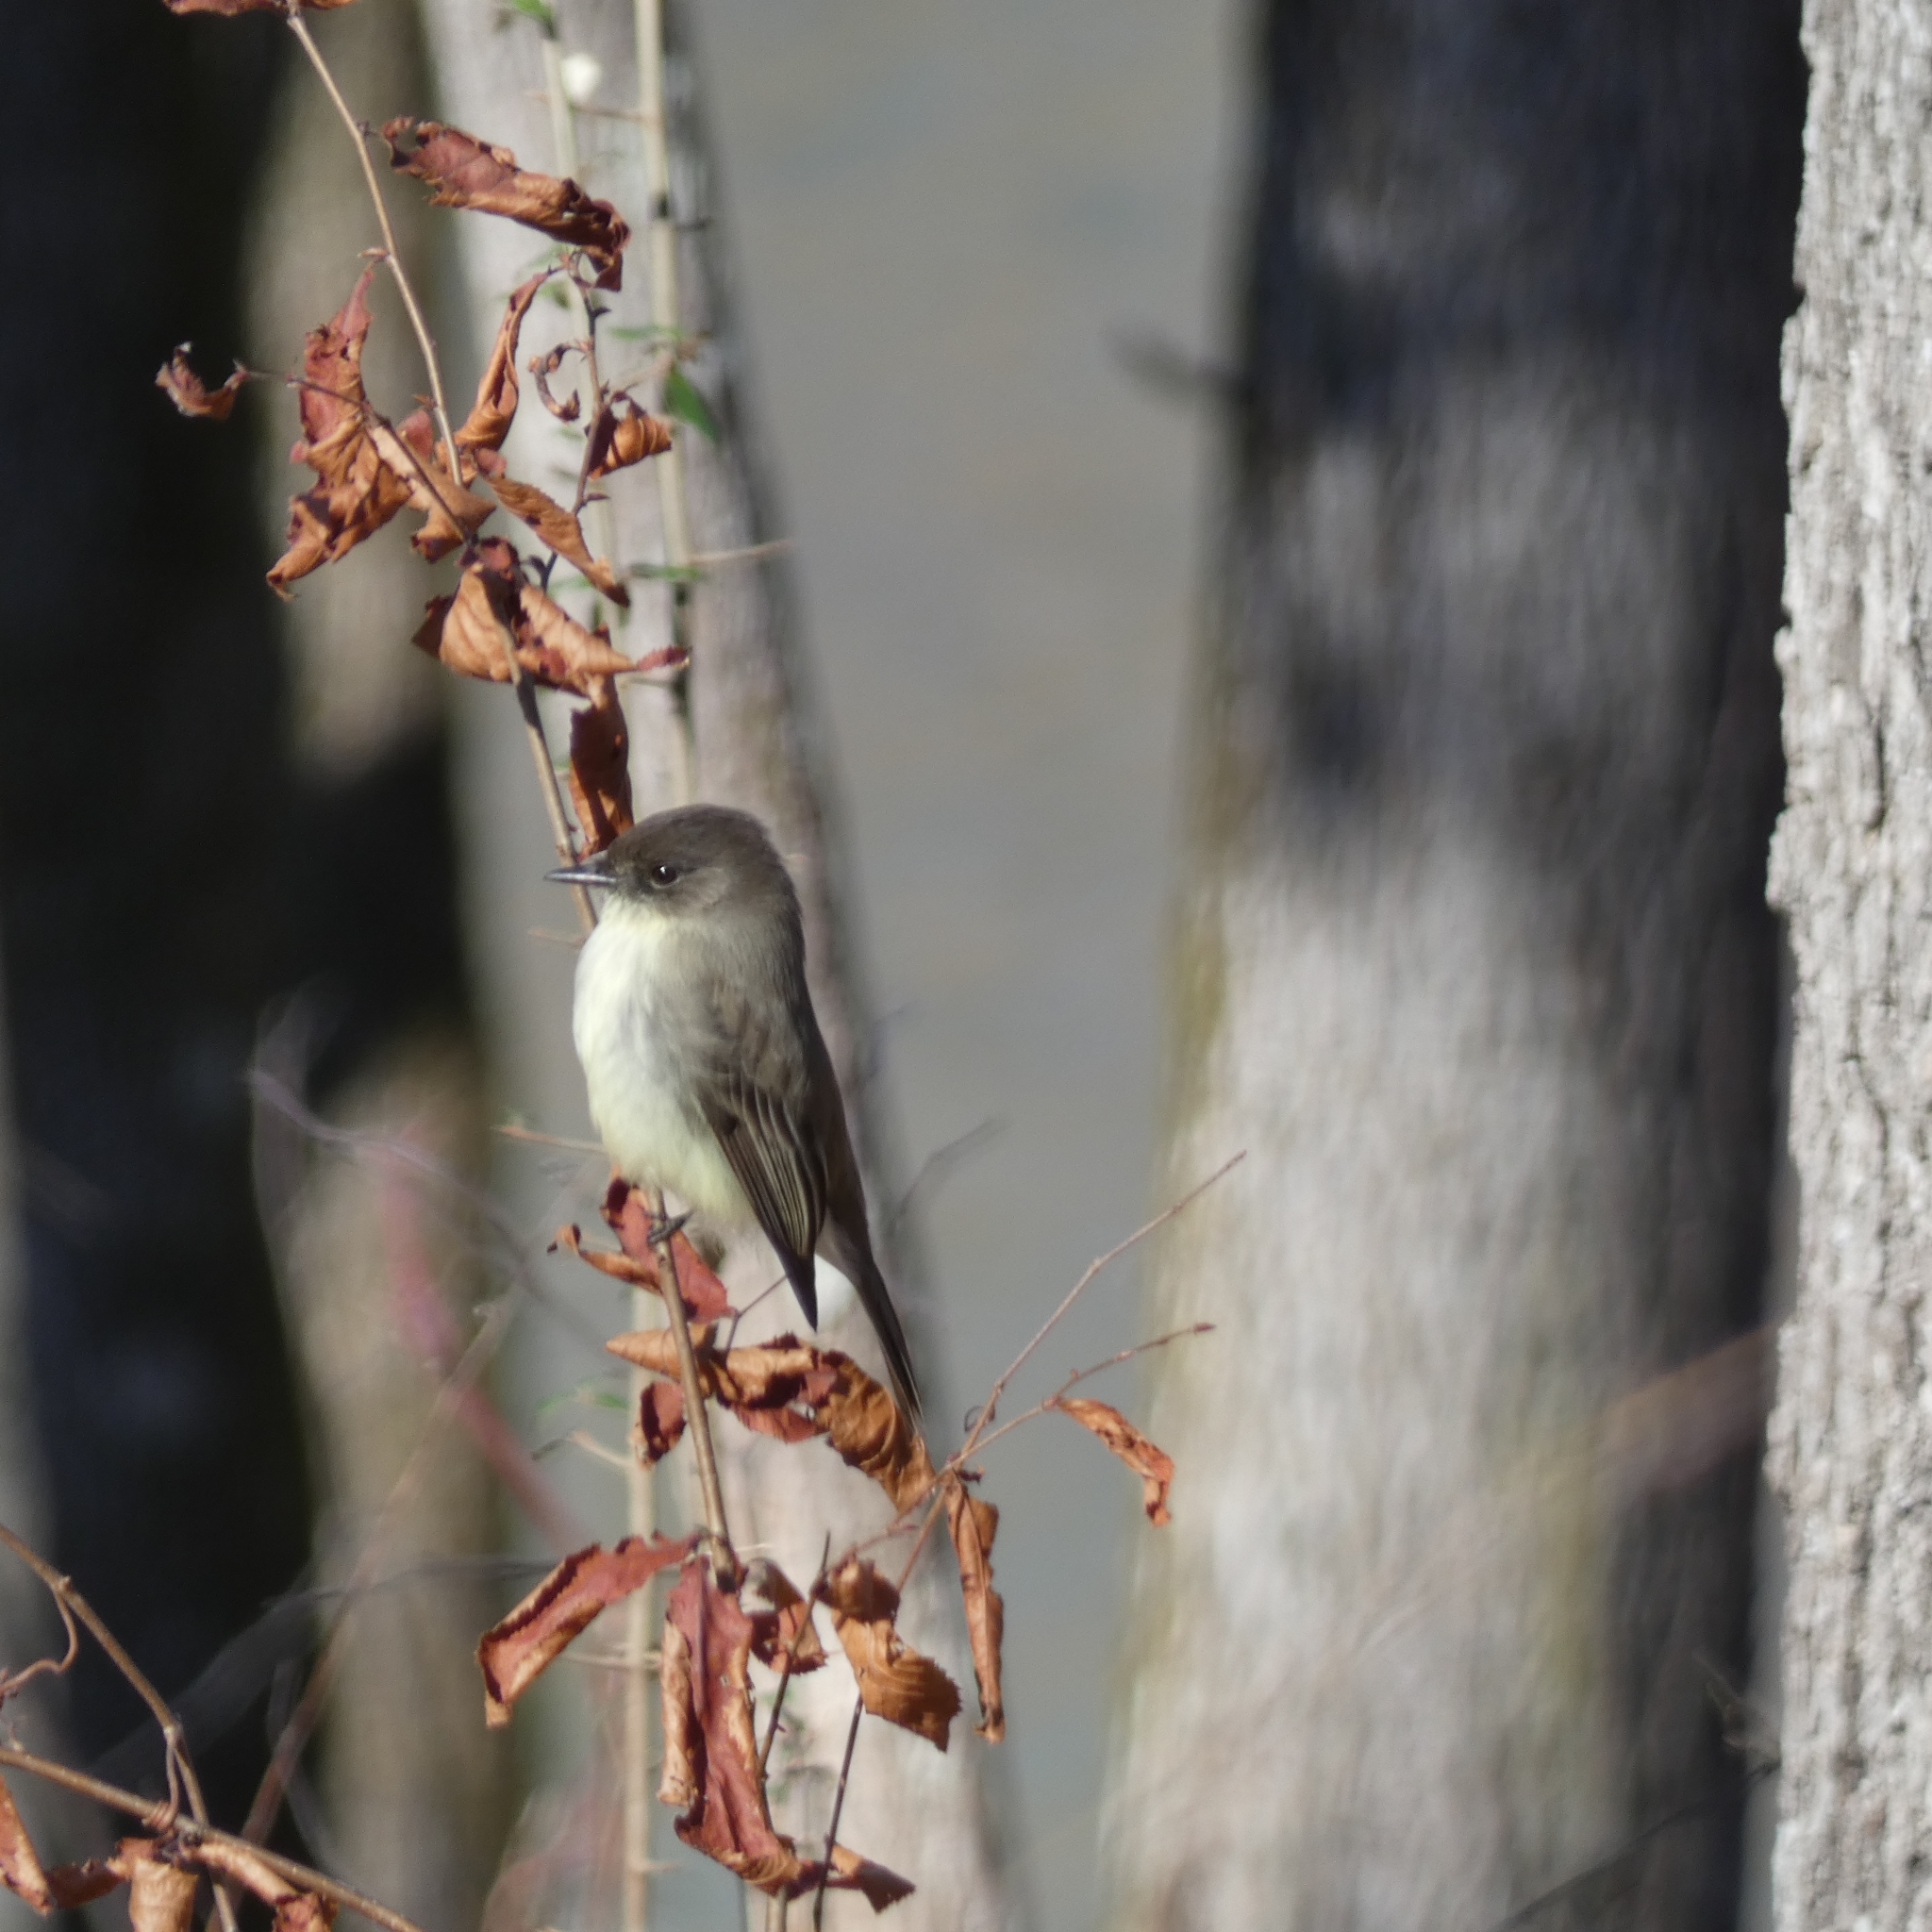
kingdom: Animalia
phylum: Chordata
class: Aves
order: Passeriformes
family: Tyrannidae
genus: Sayornis
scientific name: Sayornis phoebe
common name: Eastern phoebe
